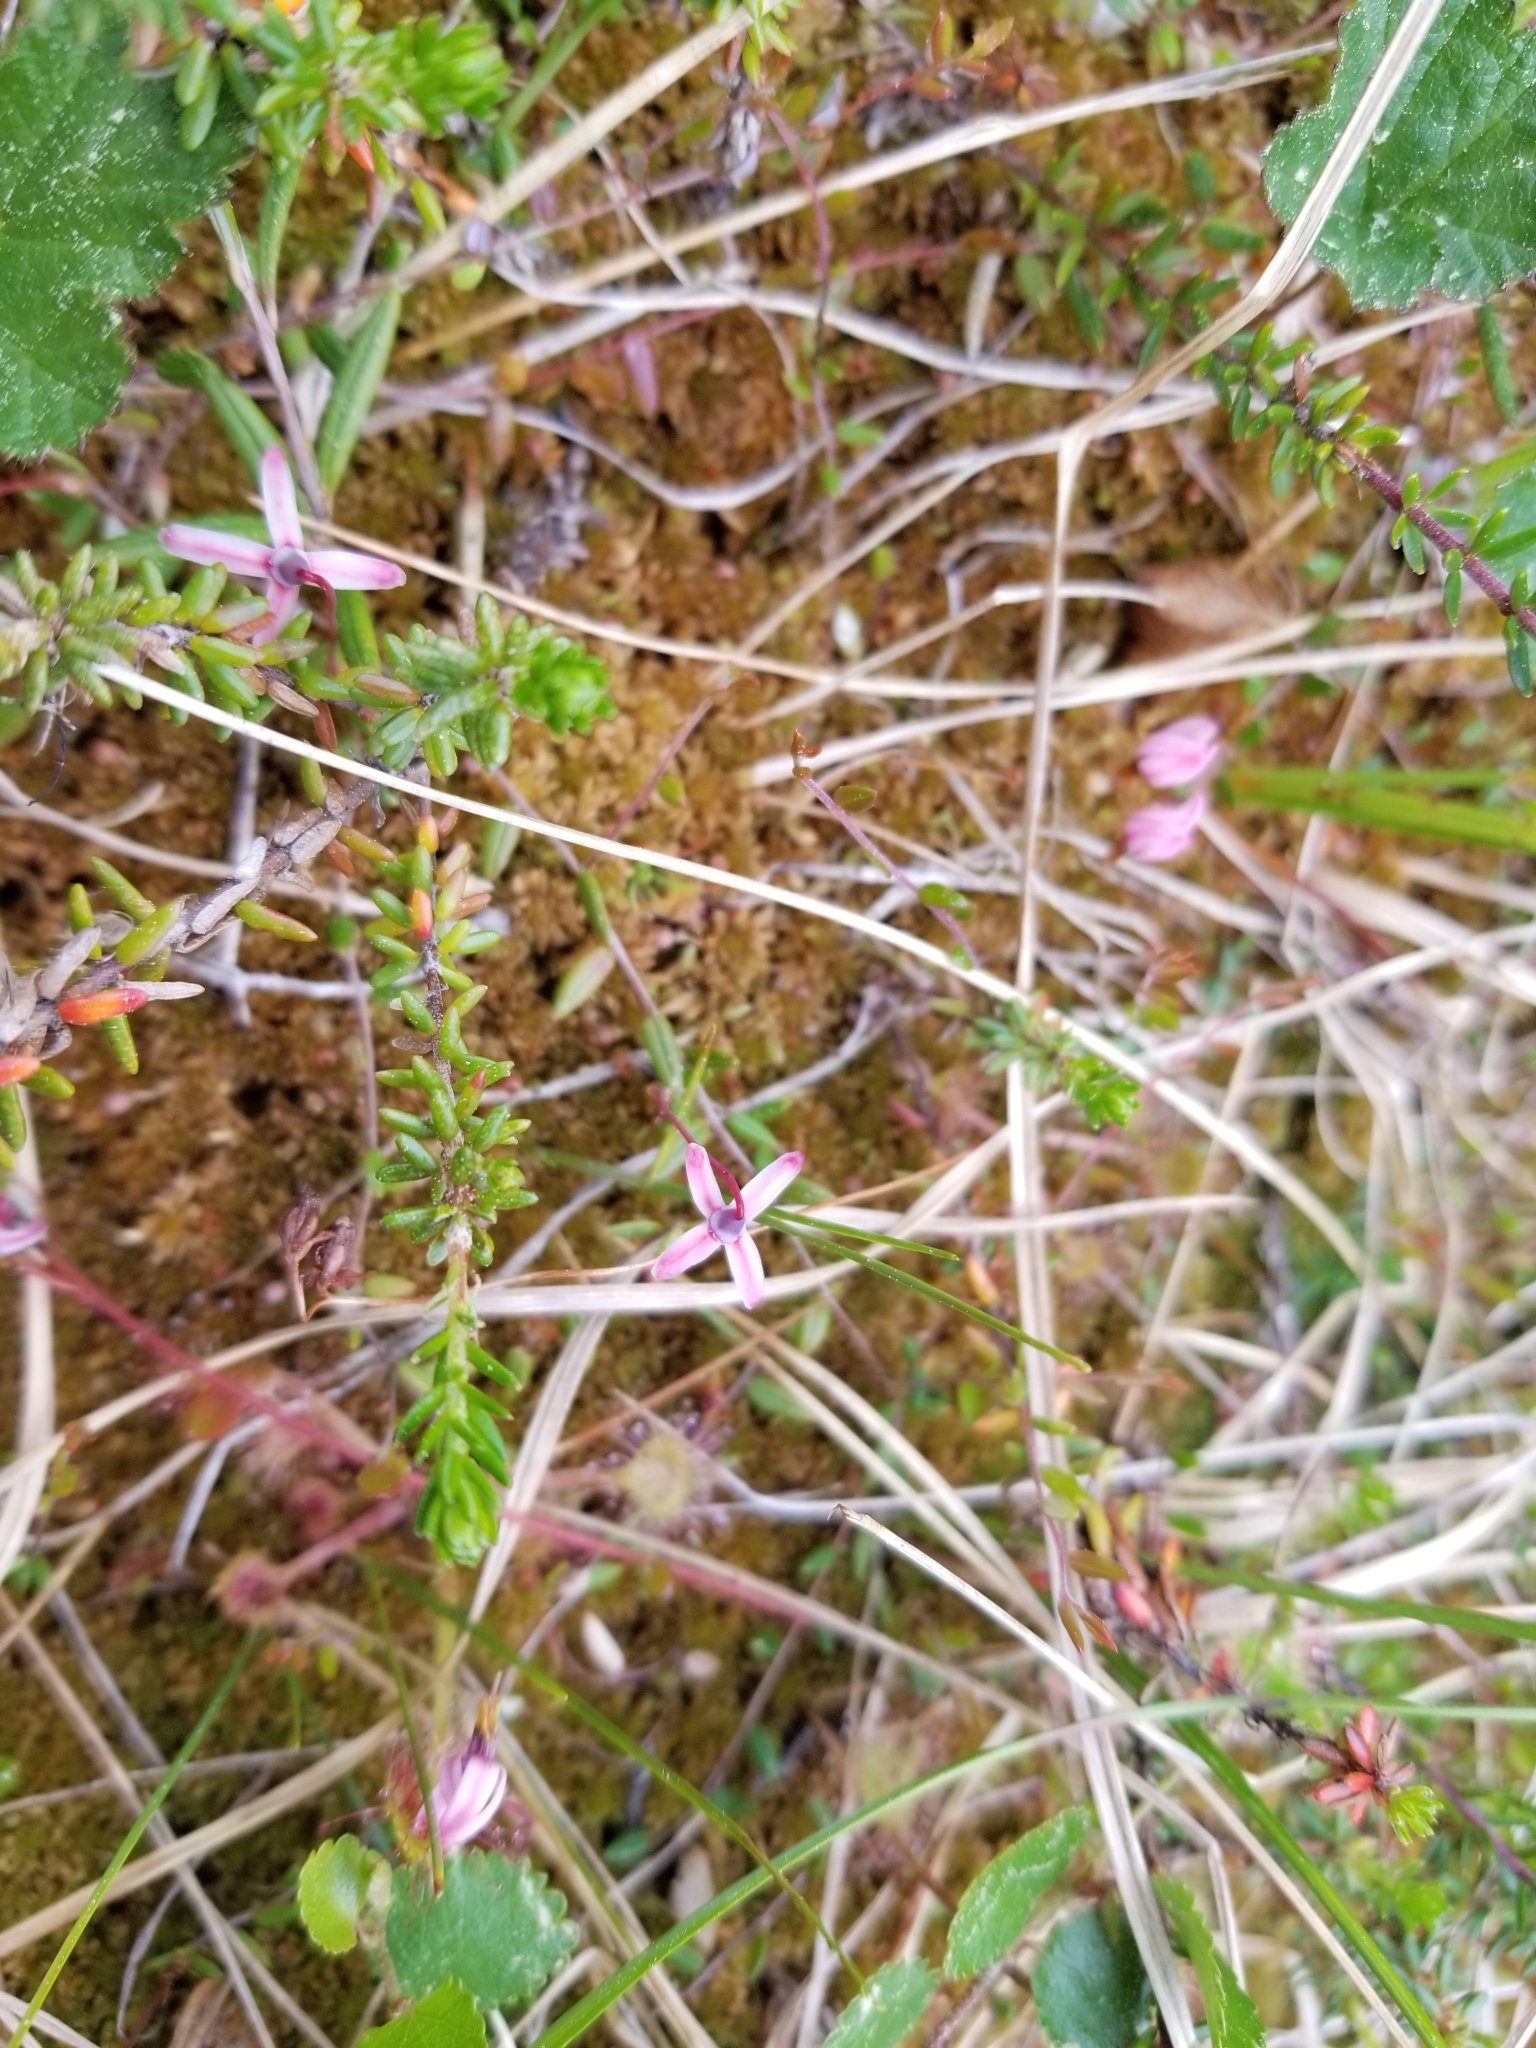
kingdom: Plantae
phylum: Tracheophyta
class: Magnoliopsida
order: Ericales
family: Ericaceae
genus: Vaccinium
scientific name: Vaccinium oxycoccos
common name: Cranberry
